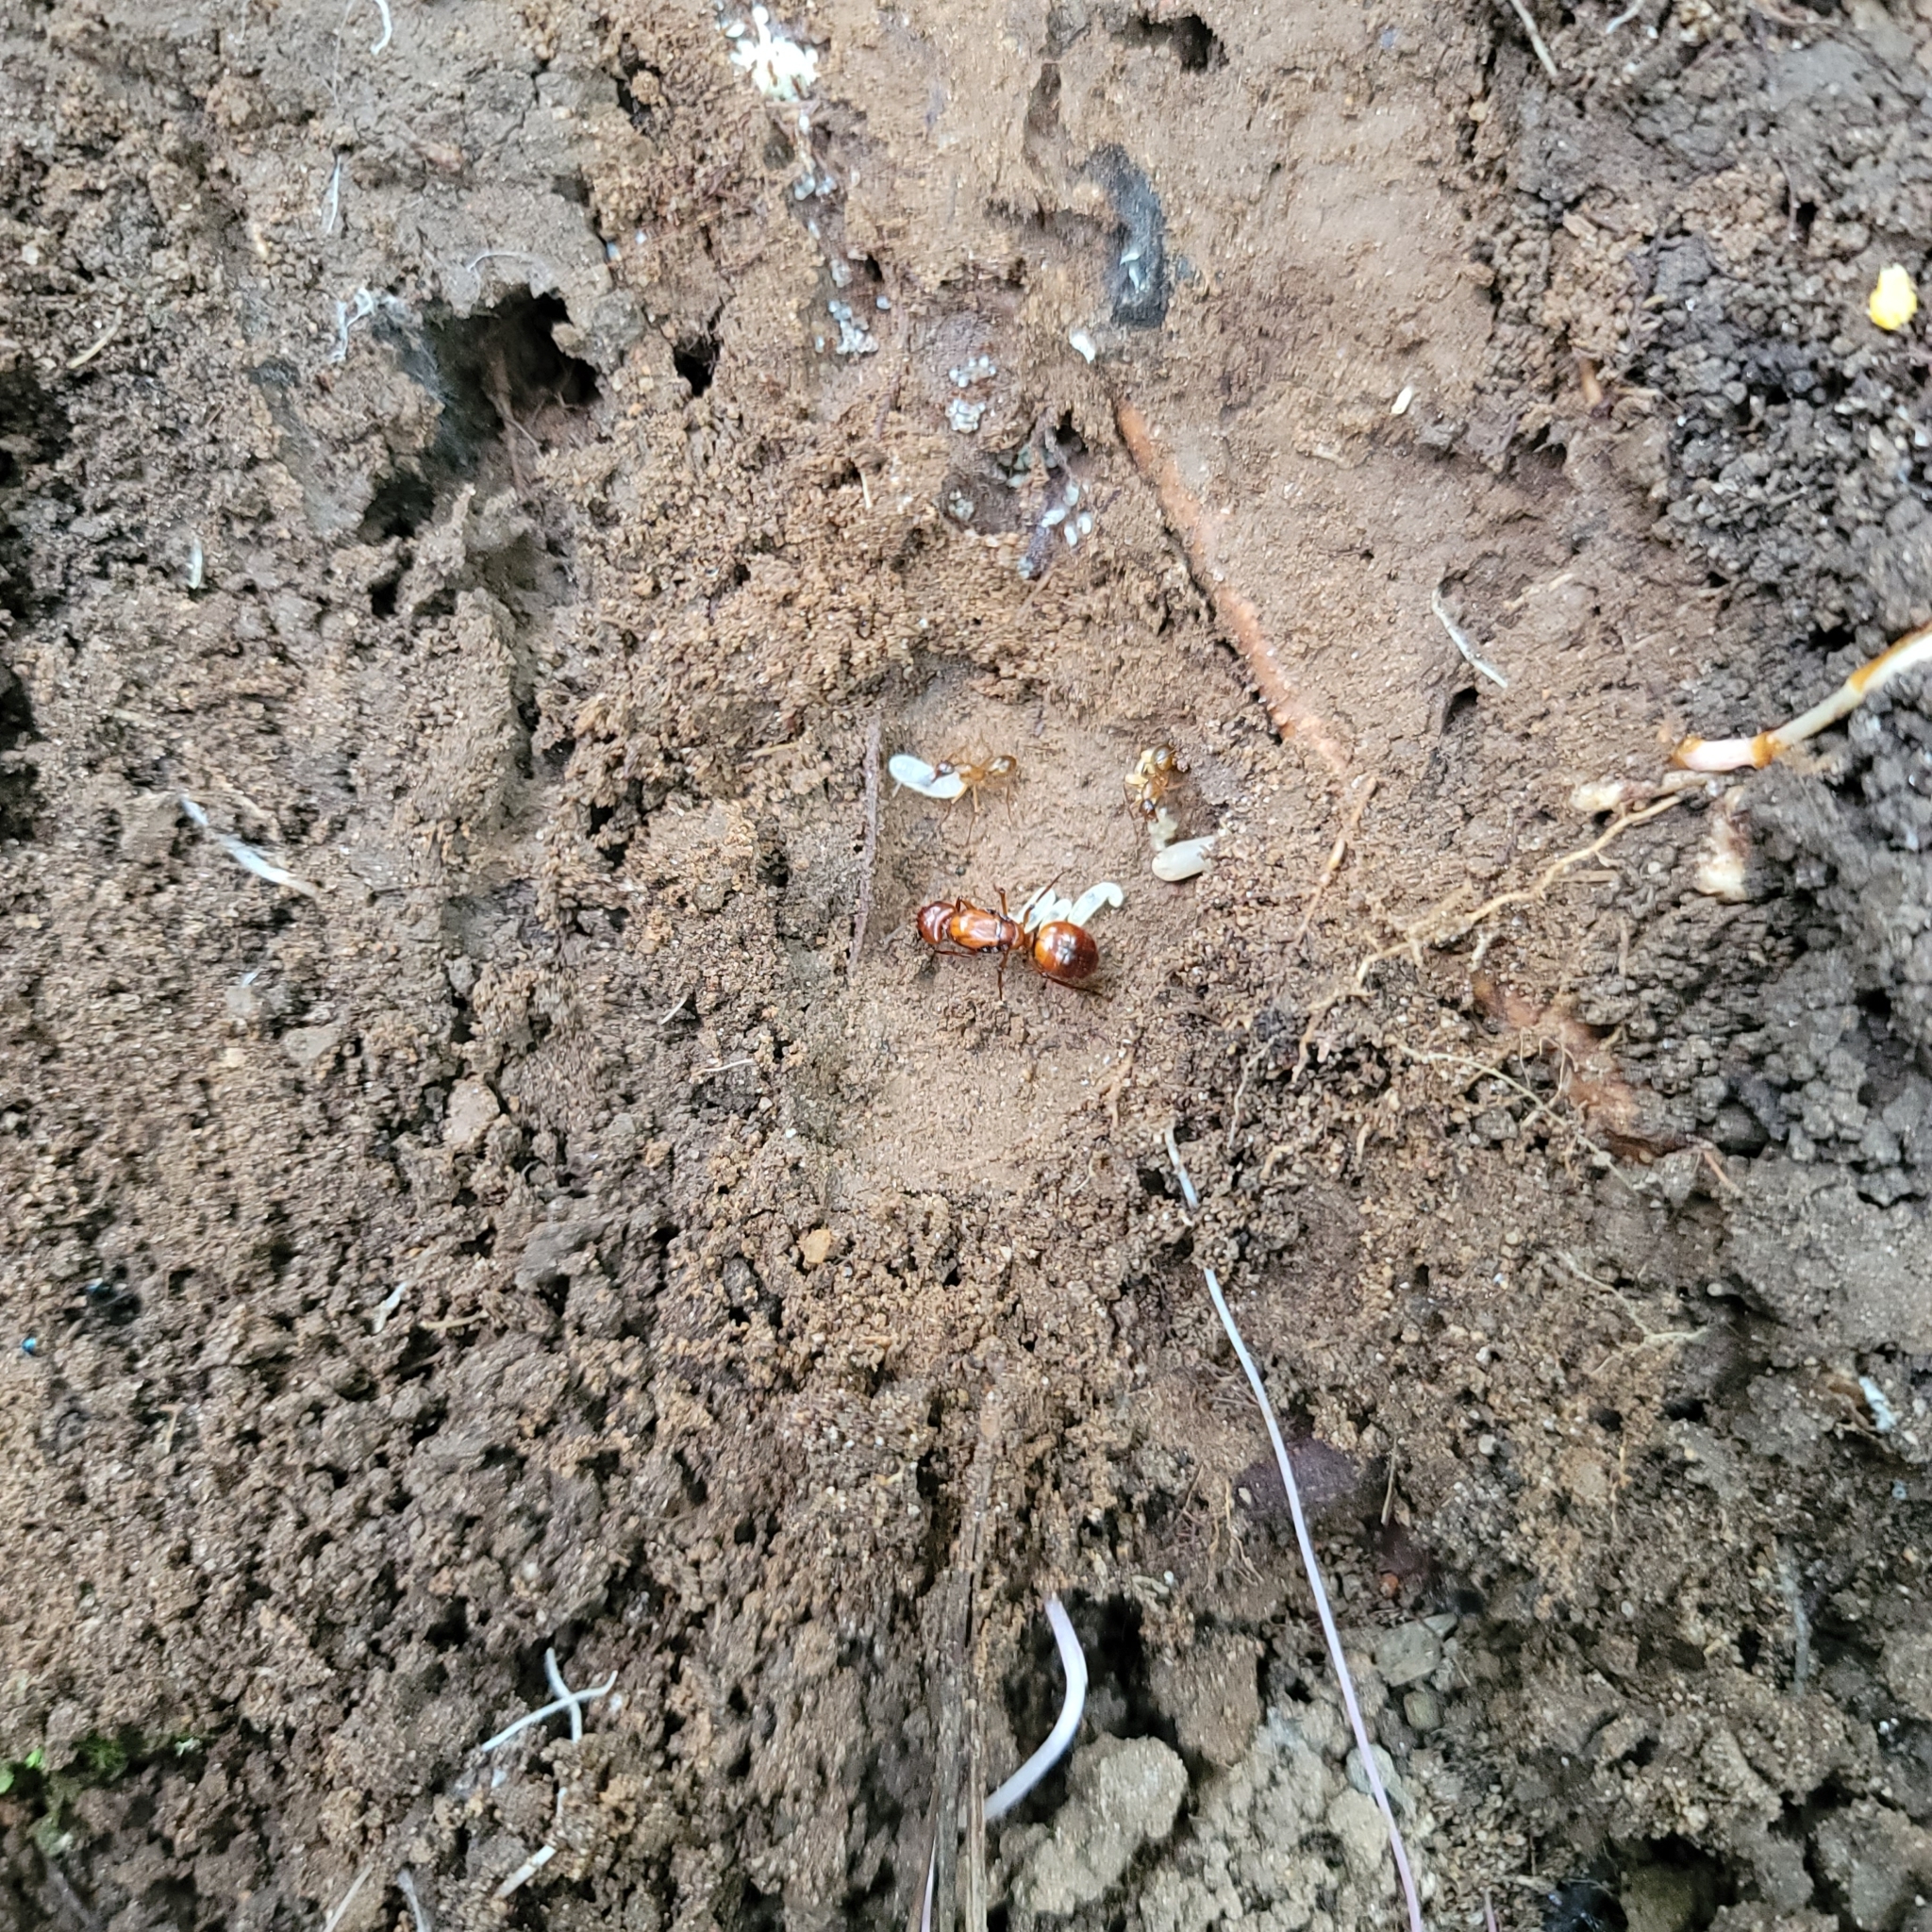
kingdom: Animalia
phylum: Arthropoda
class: Insecta
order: Hymenoptera
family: Formicidae
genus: Camponotus
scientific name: Camponotus castaneus
